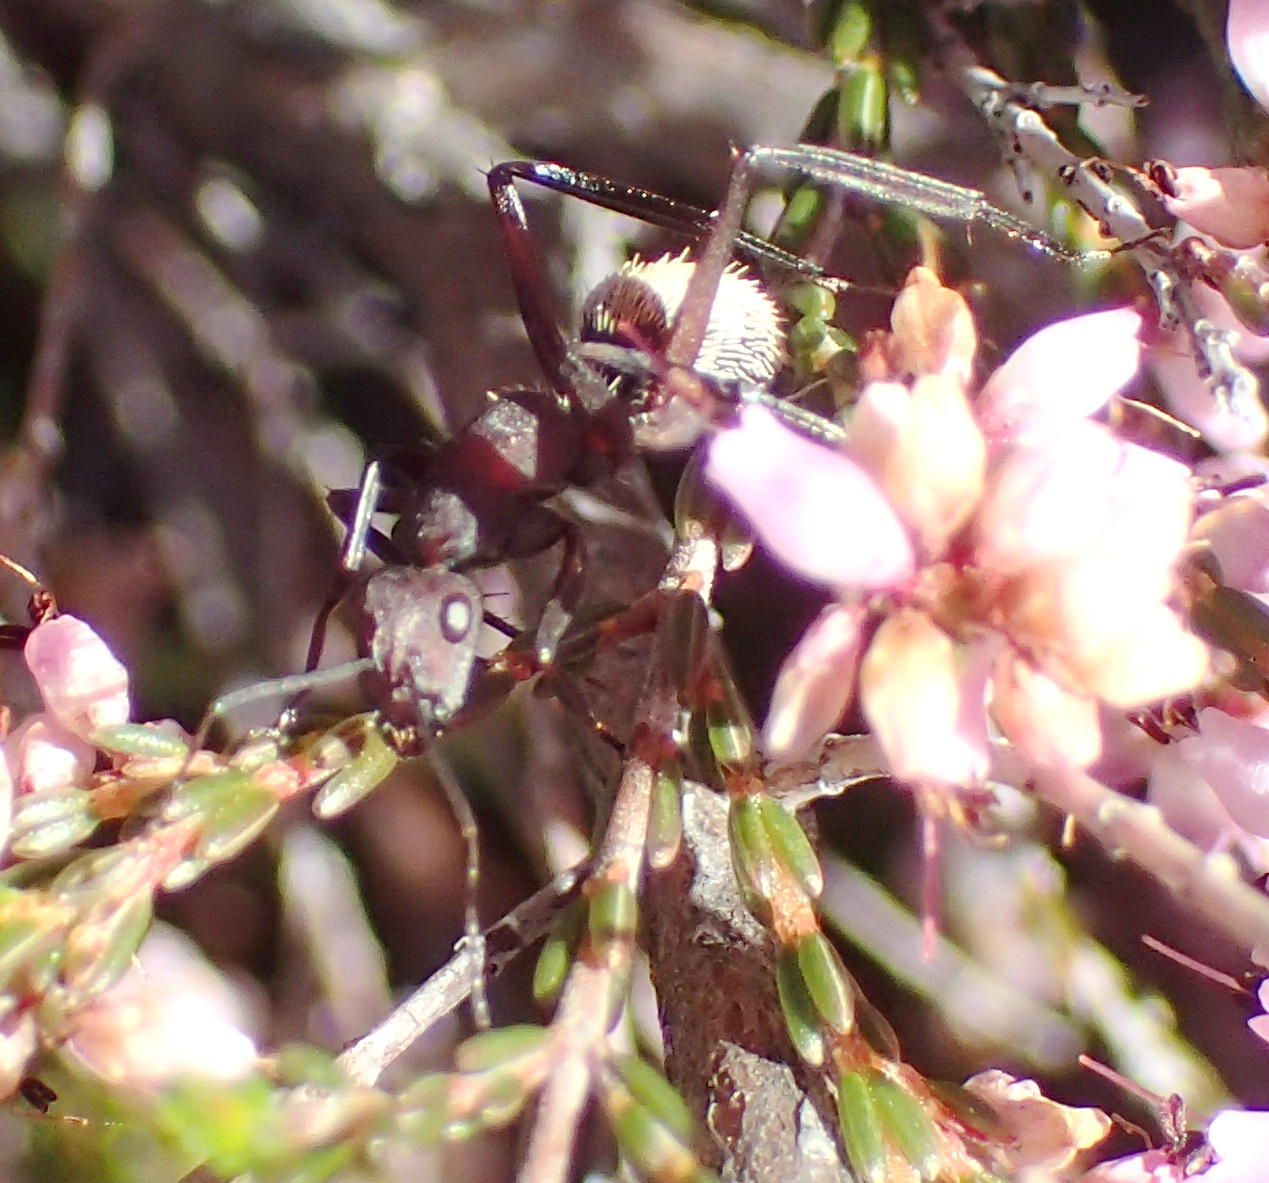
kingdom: Animalia
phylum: Arthropoda
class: Insecta
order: Hymenoptera
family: Formicidae
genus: Camponotus
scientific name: Camponotus storeatus
